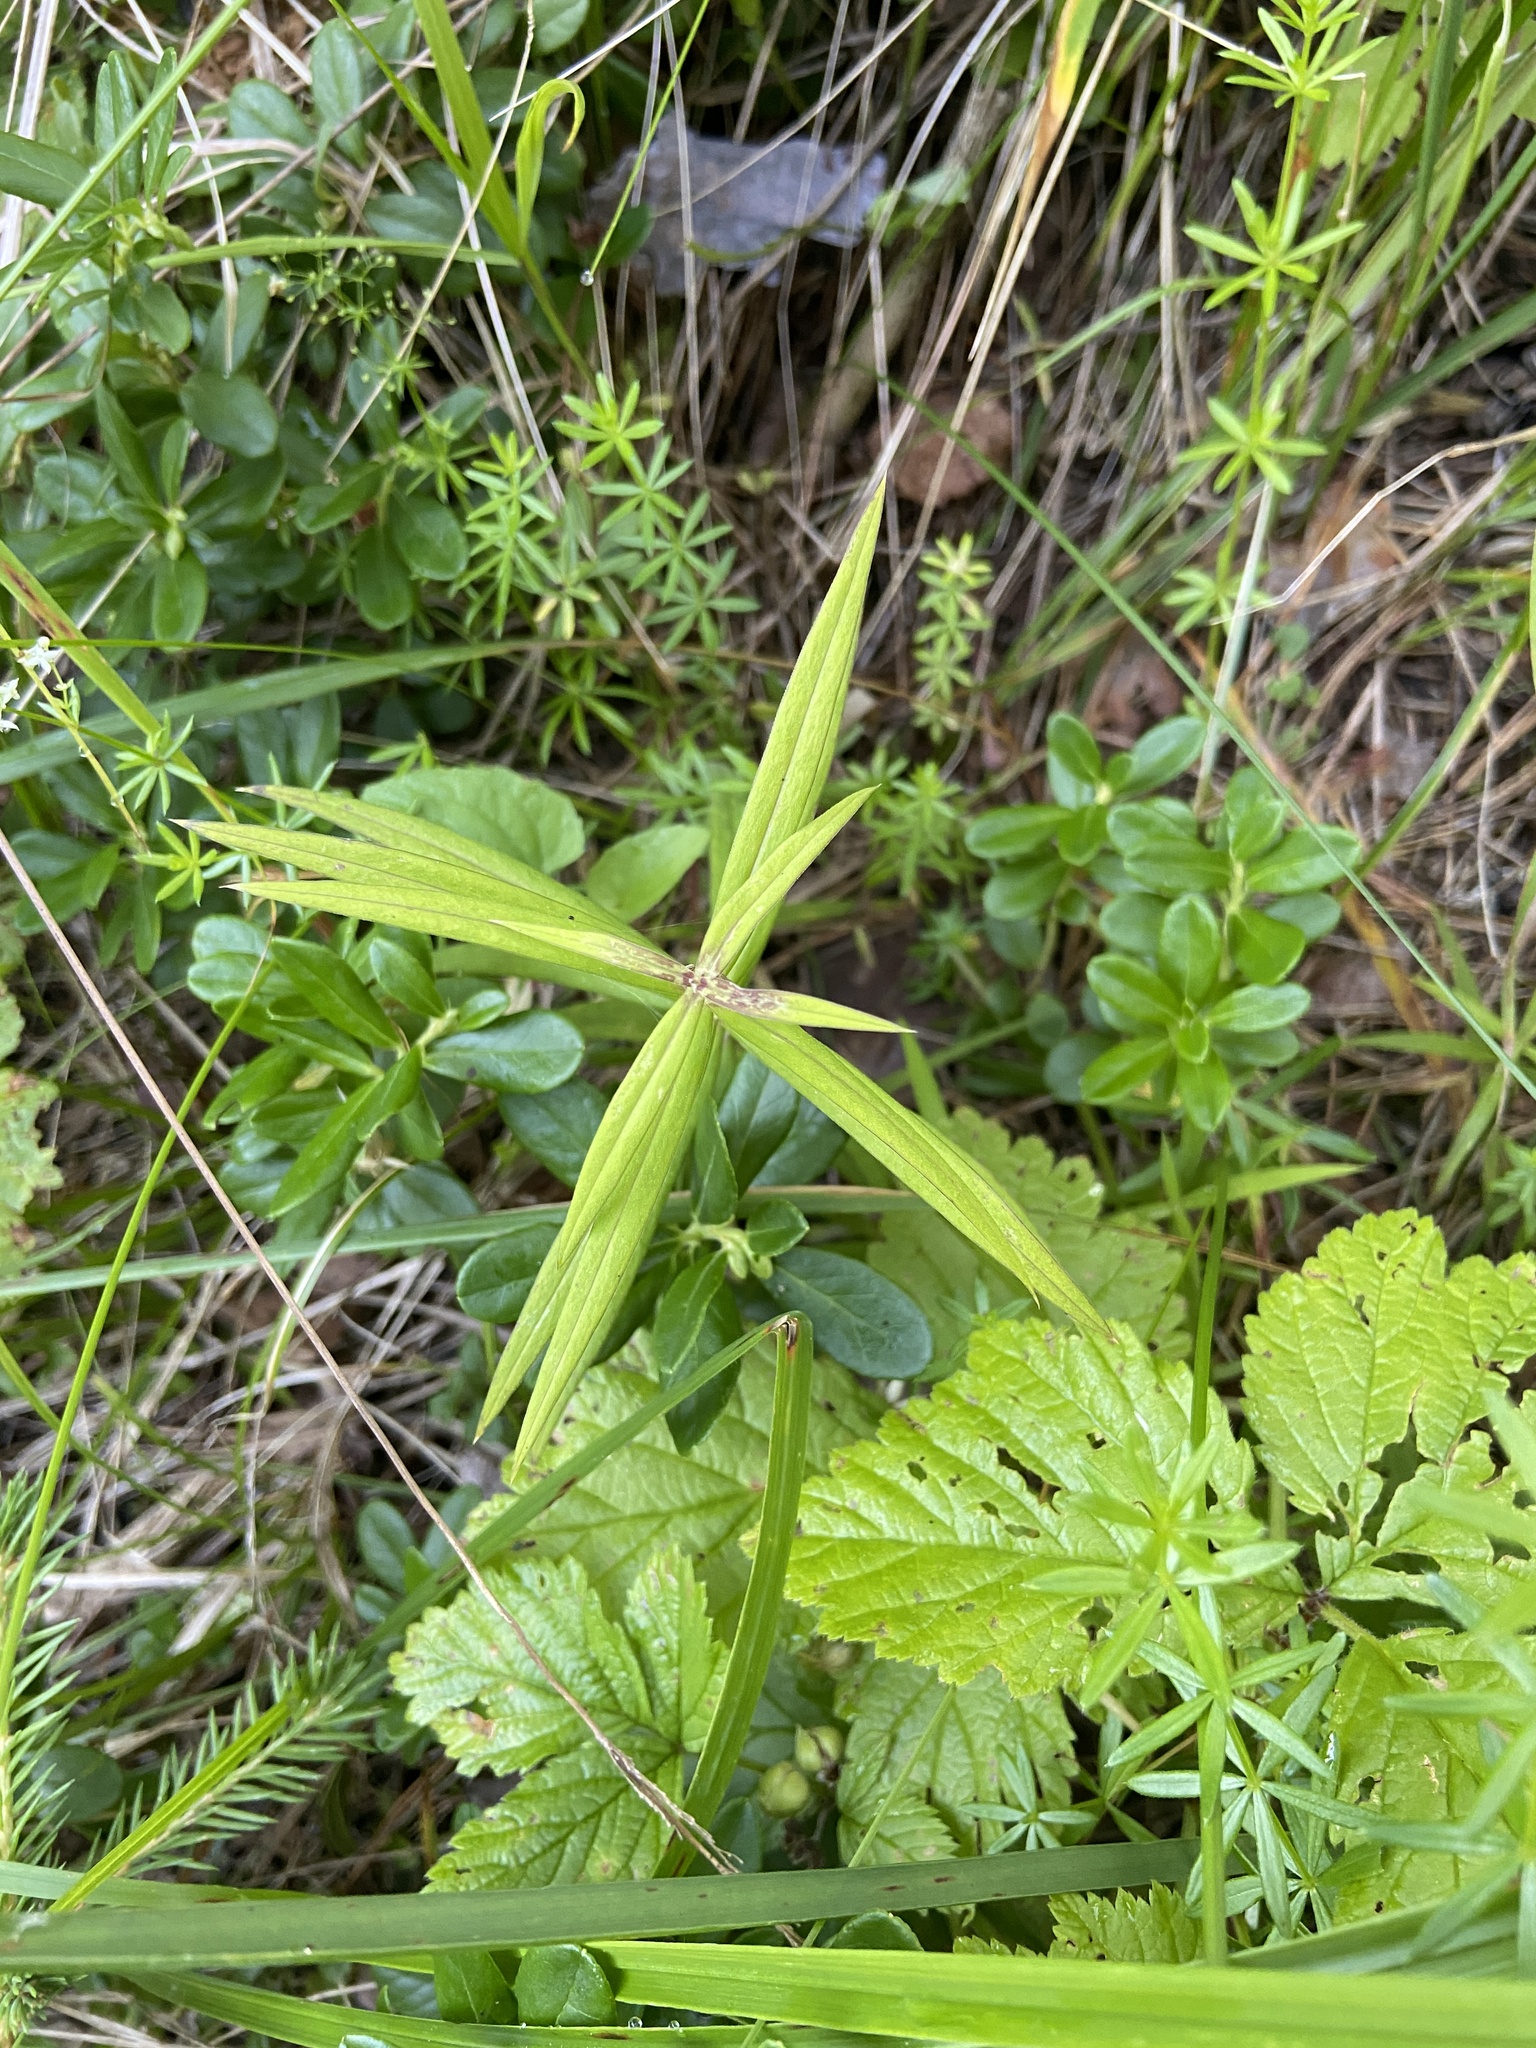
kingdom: Plantae
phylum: Tracheophyta
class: Magnoliopsida
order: Caryophyllales
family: Caryophyllaceae
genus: Rabelera
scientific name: Rabelera holostea
